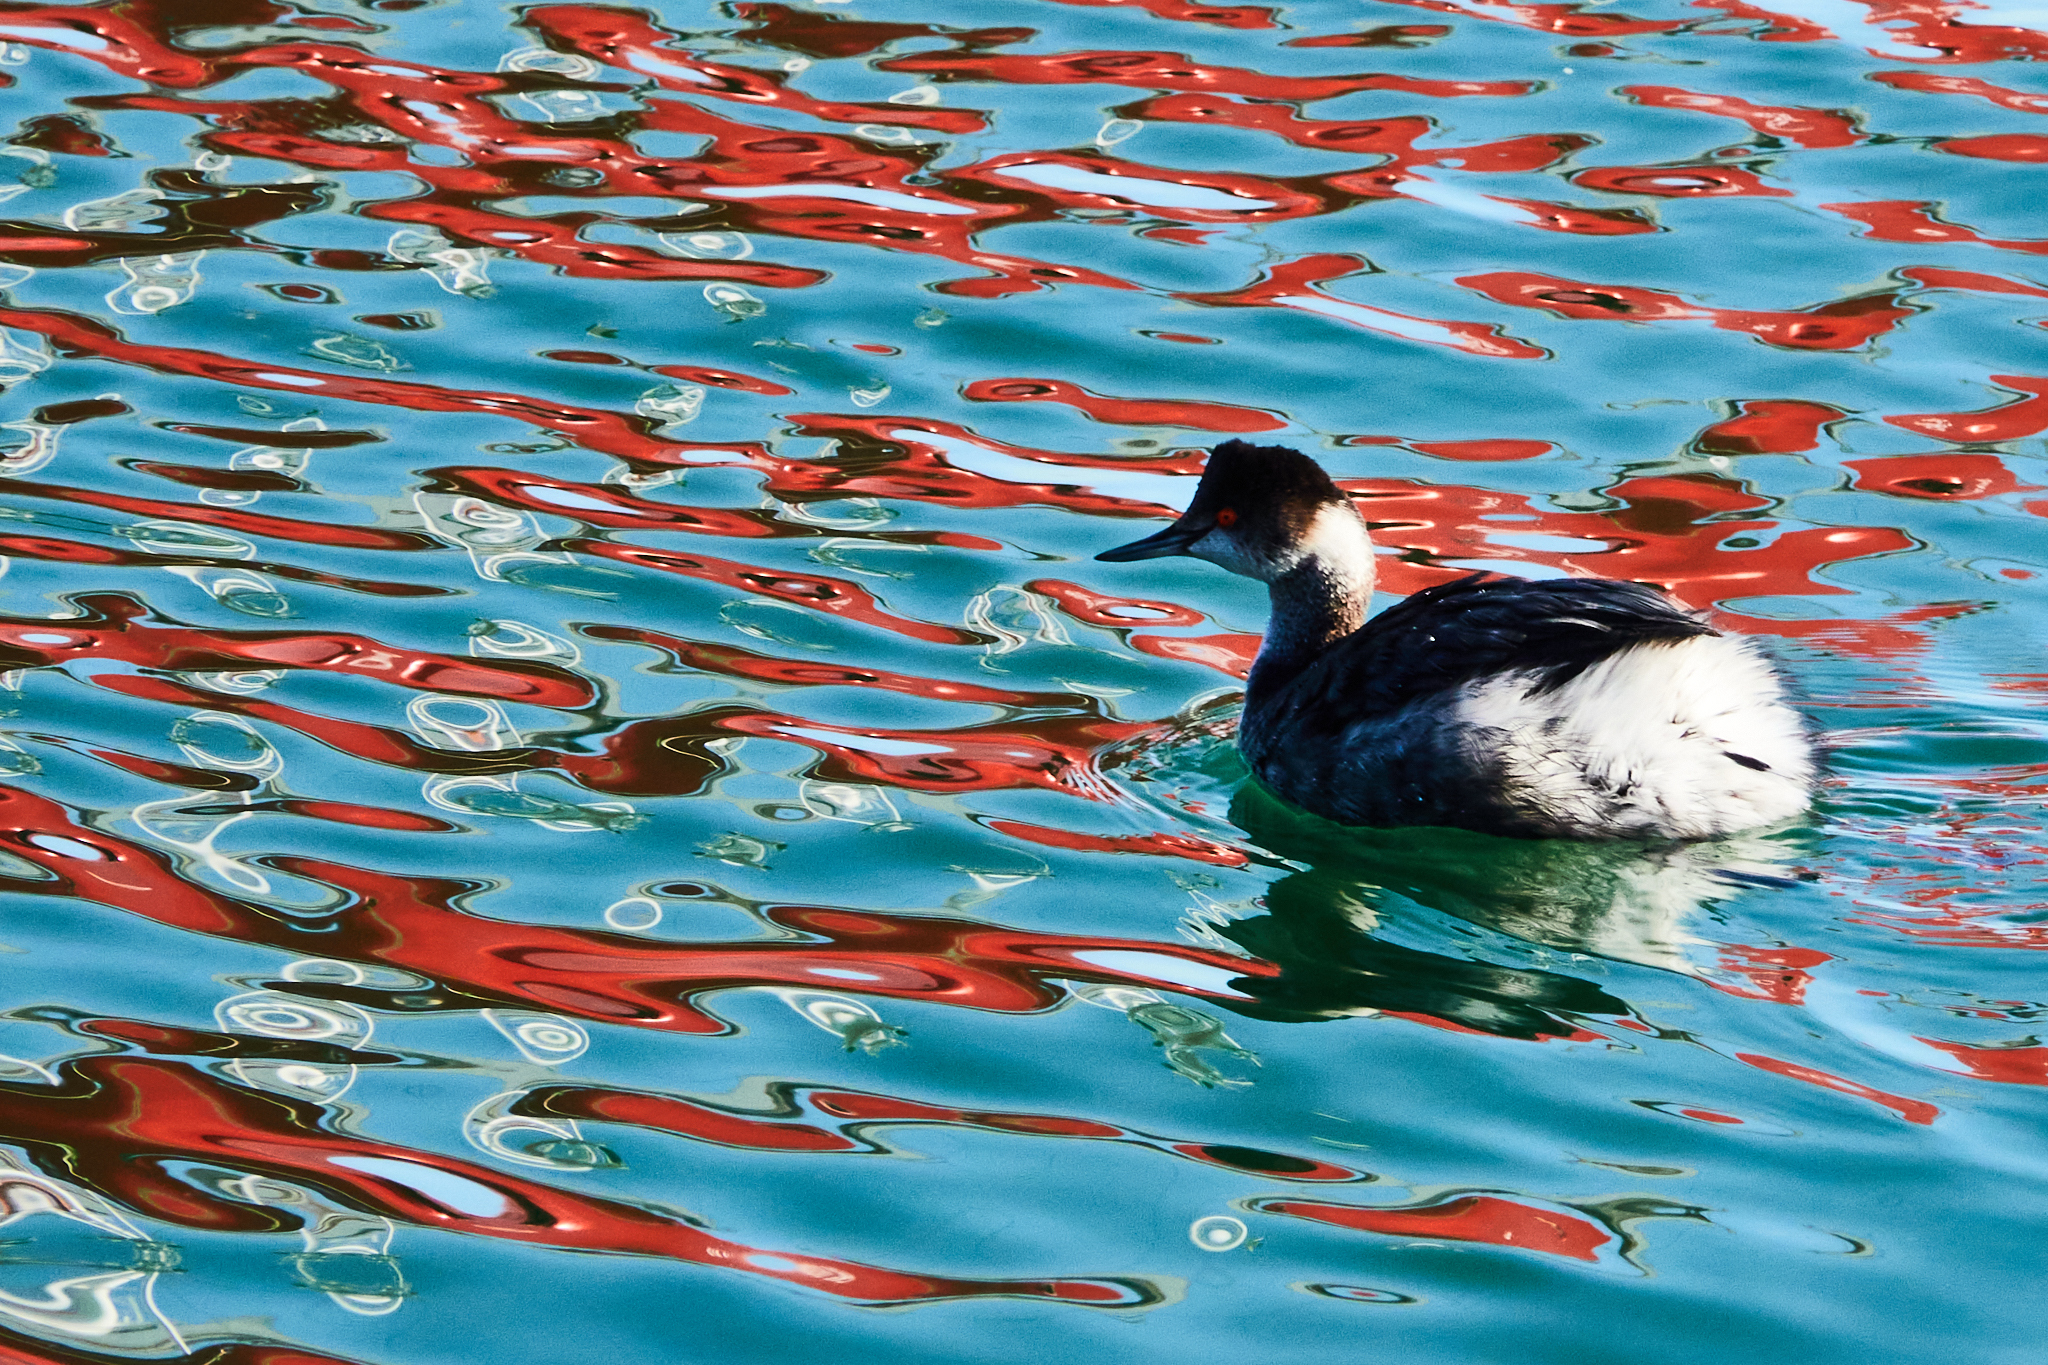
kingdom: Animalia
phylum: Chordata
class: Aves
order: Podicipediformes
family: Podicipedidae
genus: Podiceps
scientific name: Podiceps nigricollis
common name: Black-necked grebe
